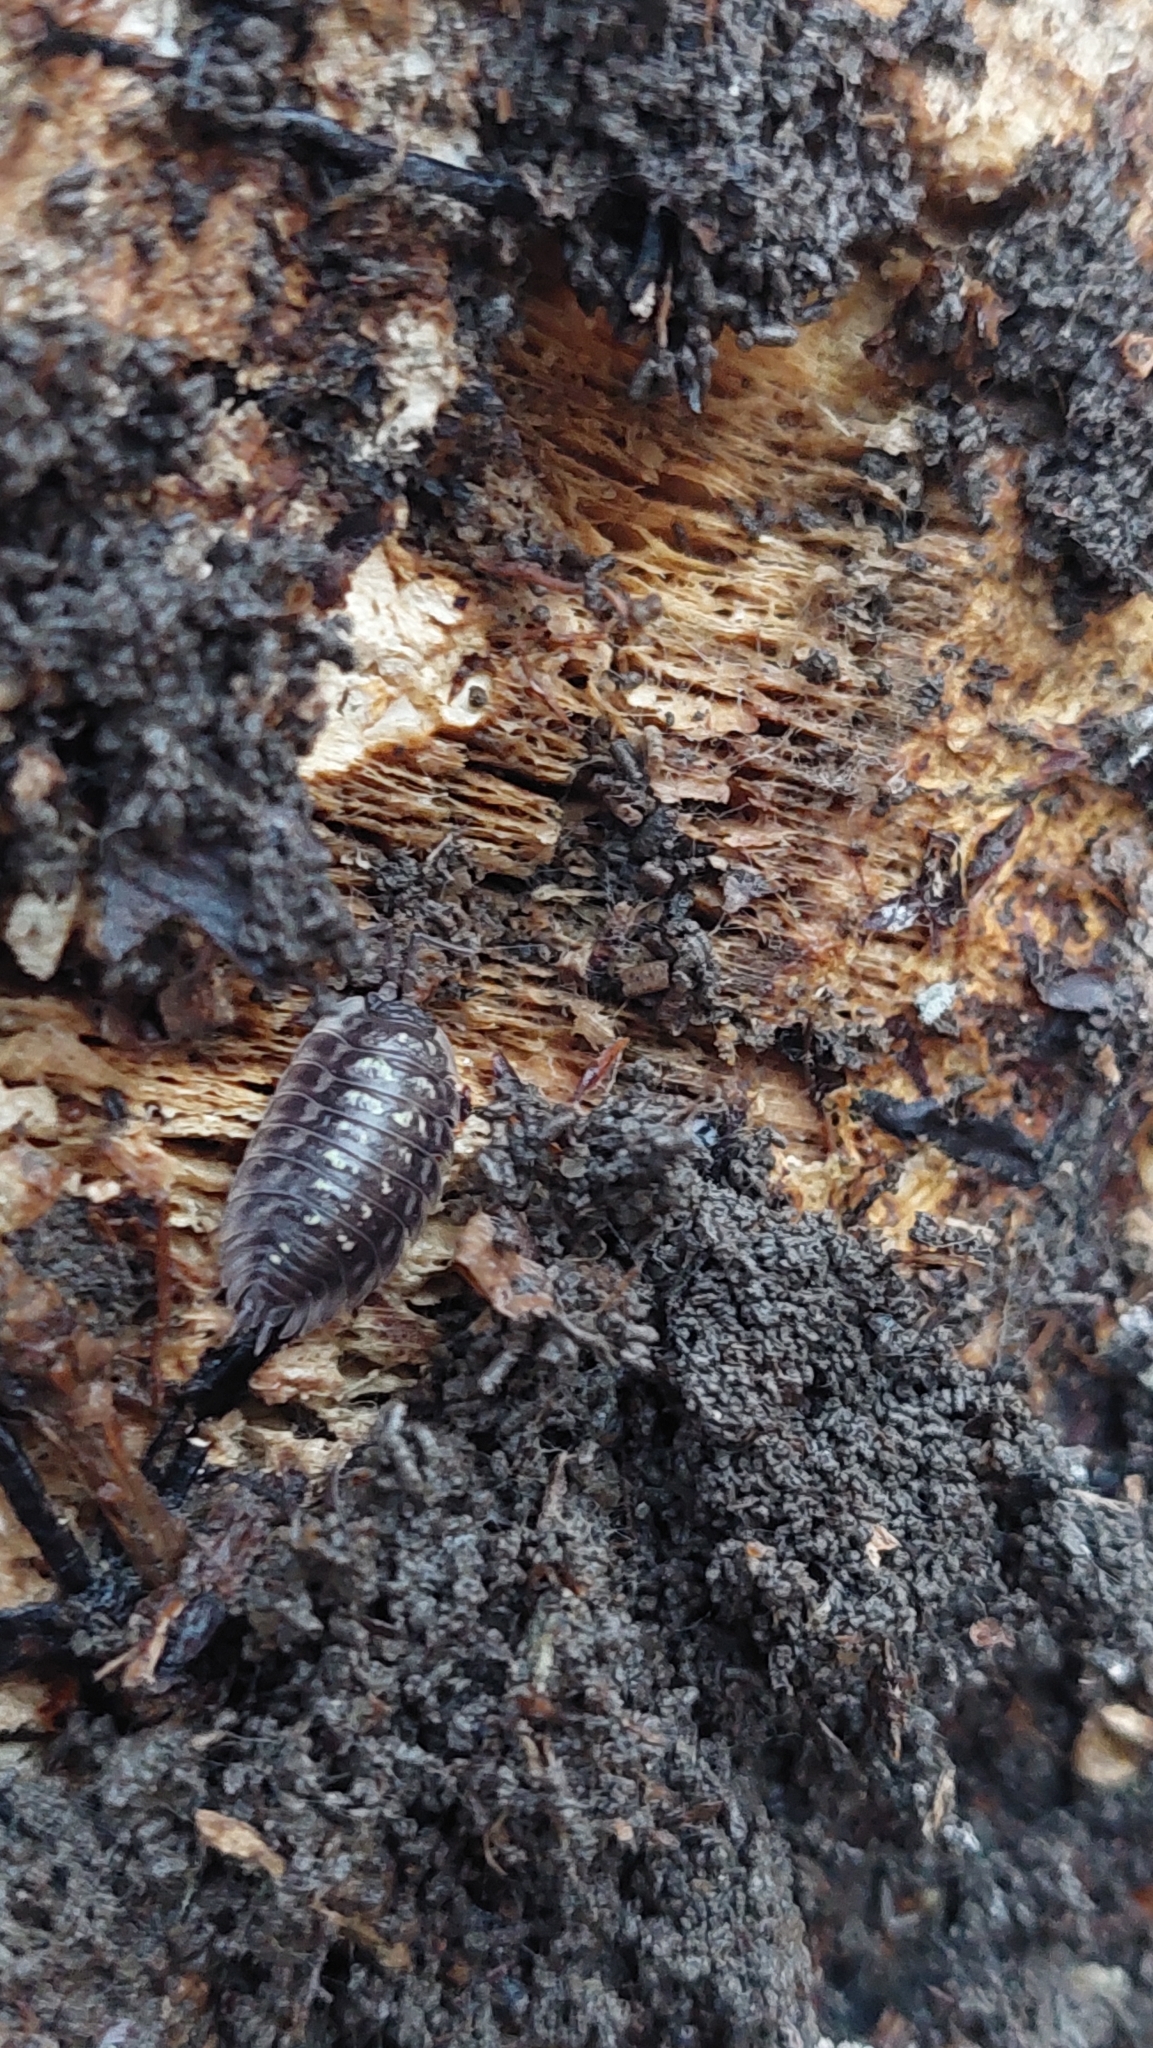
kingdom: Animalia
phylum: Arthropoda
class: Malacostraca
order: Isopoda
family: Oniscidae
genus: Oniscus
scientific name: Oniscus asellus
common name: Common shiny woodlouse
